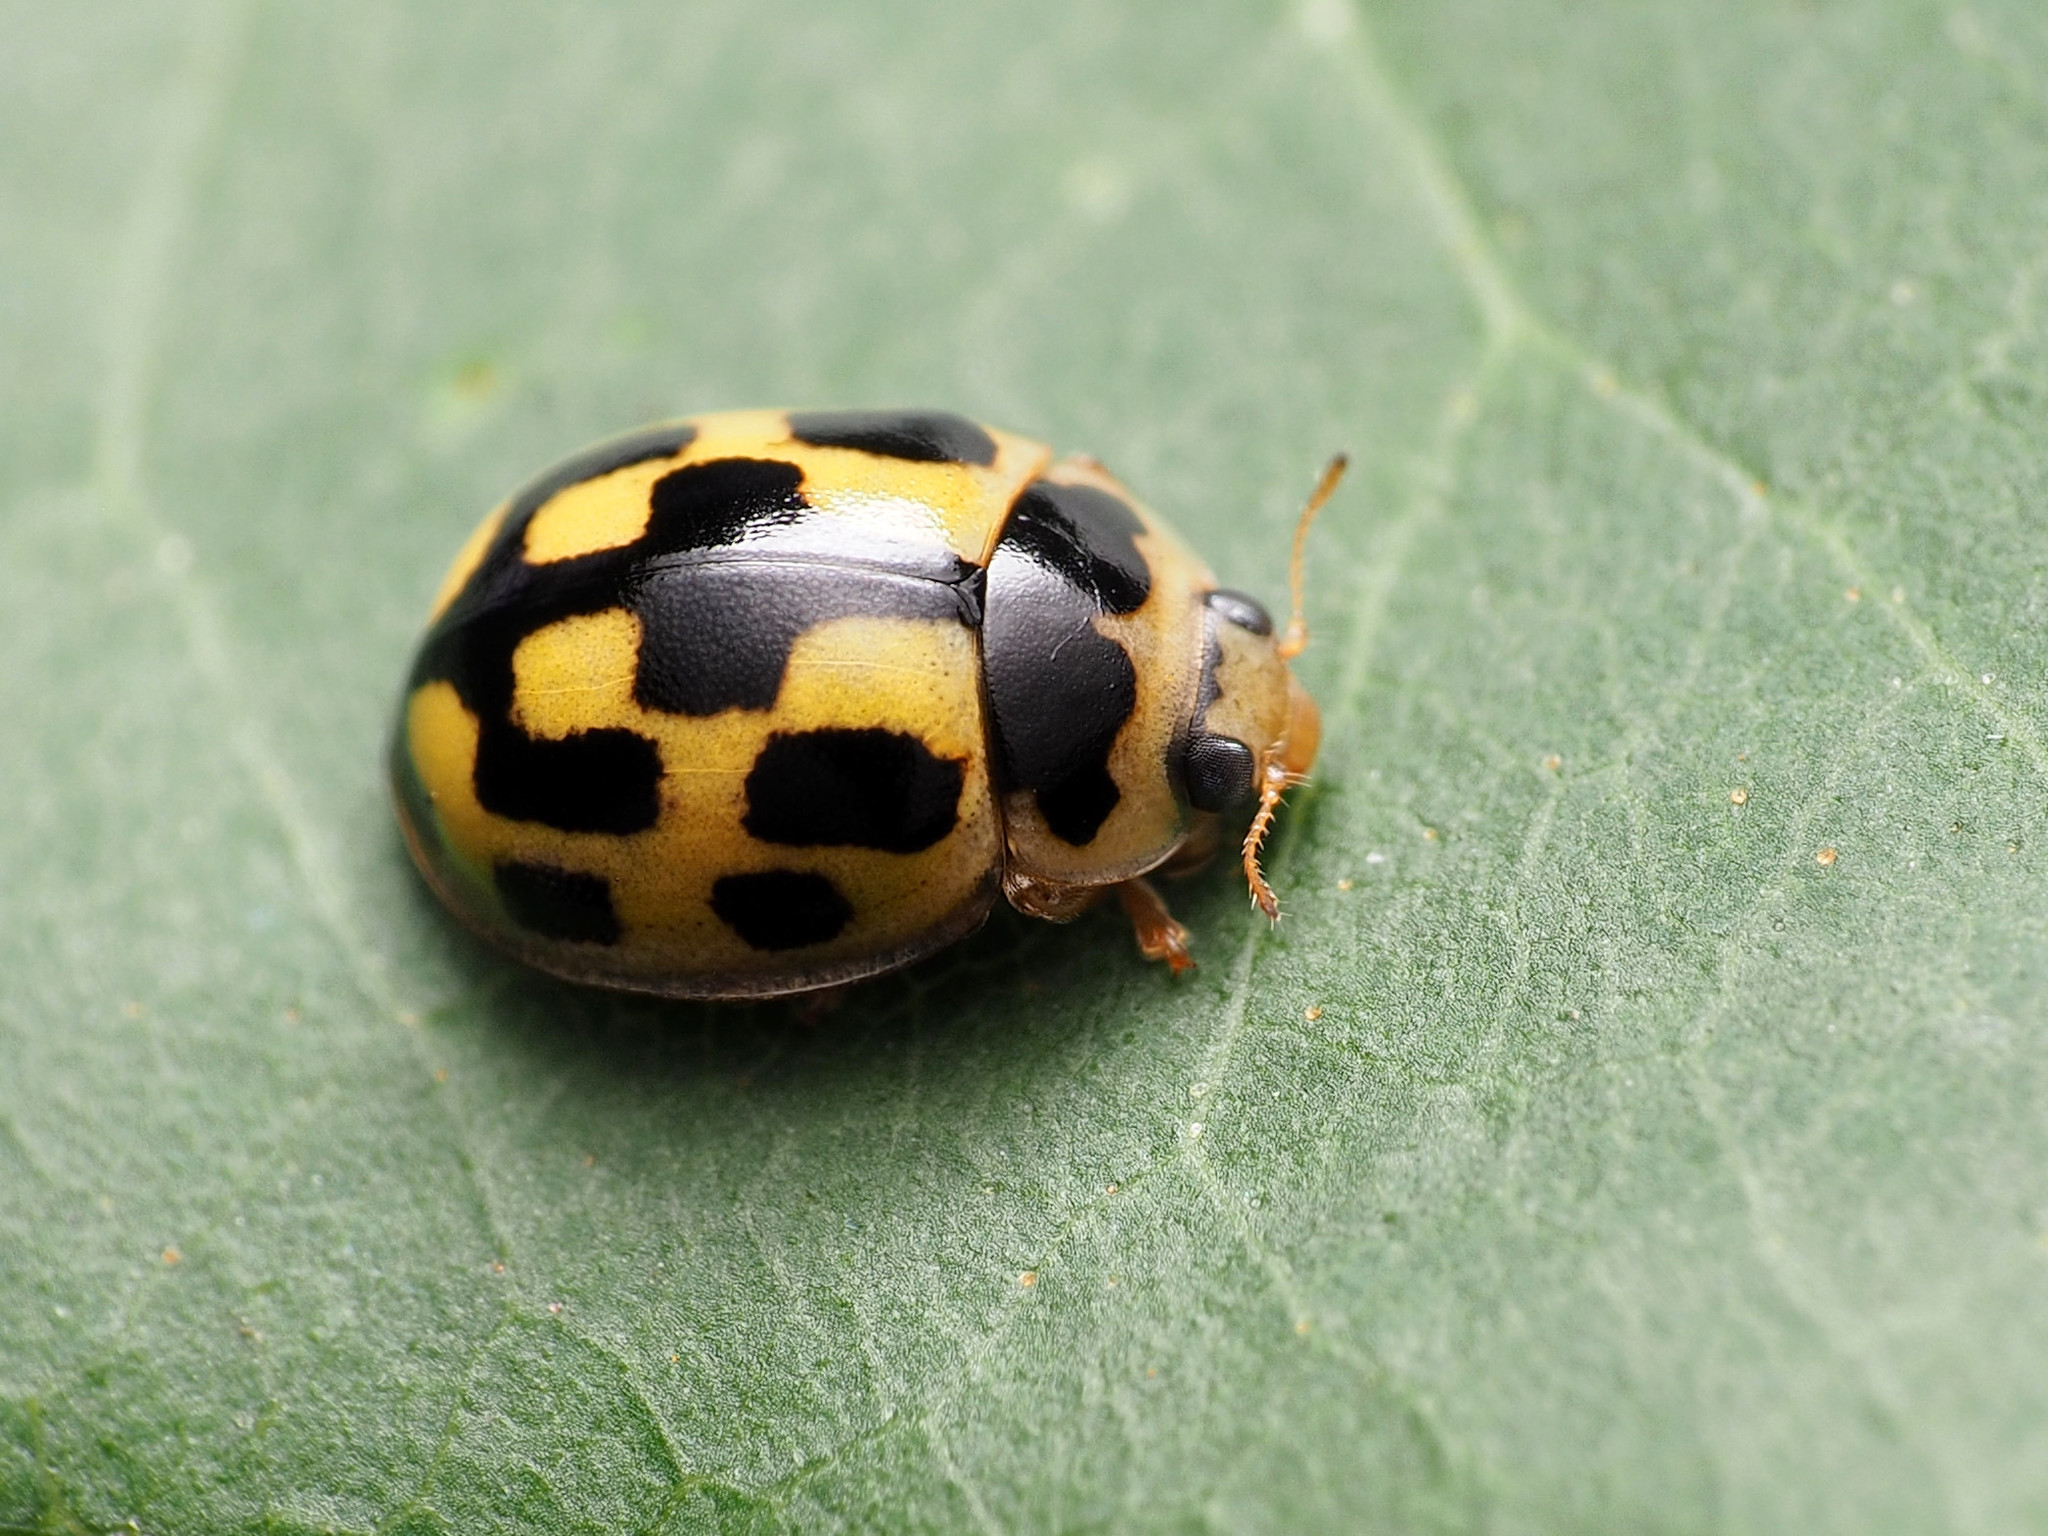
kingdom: Animalia
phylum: Arthropoda
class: Insecta
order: Coleoptera
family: Coccinellidae
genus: Propylaea
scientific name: Propylaea quatuordecimpunctata
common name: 14-spotted ladybird beetle
